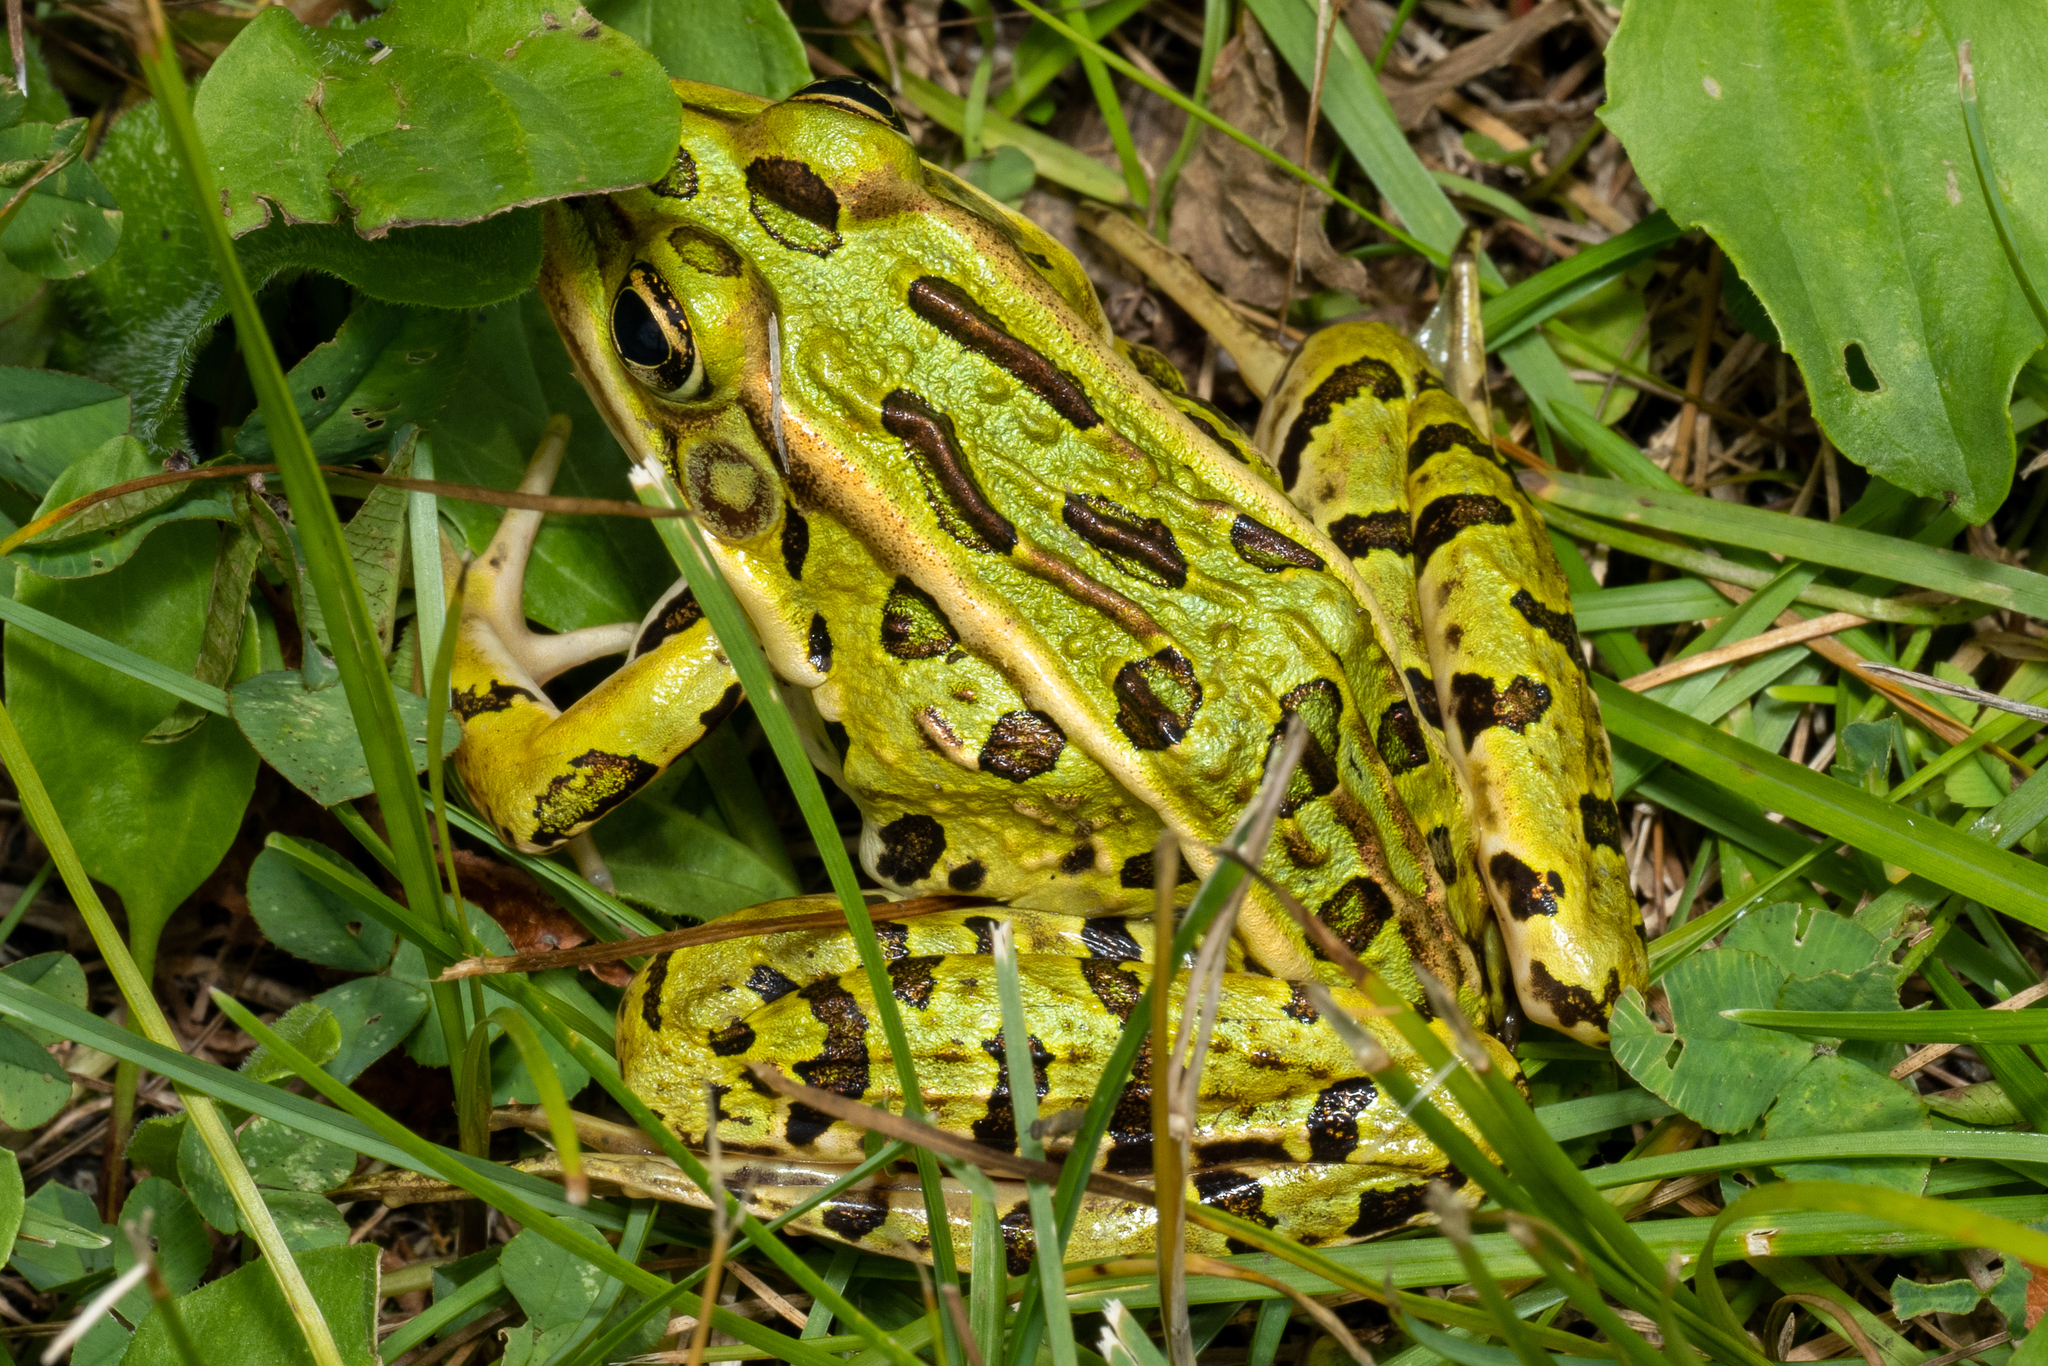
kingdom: Animalia
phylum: Chordata
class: Amphibia
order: Anura
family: Ranidae
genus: Lithobates
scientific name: Lithobates pipiens
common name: Northern leopard frog
